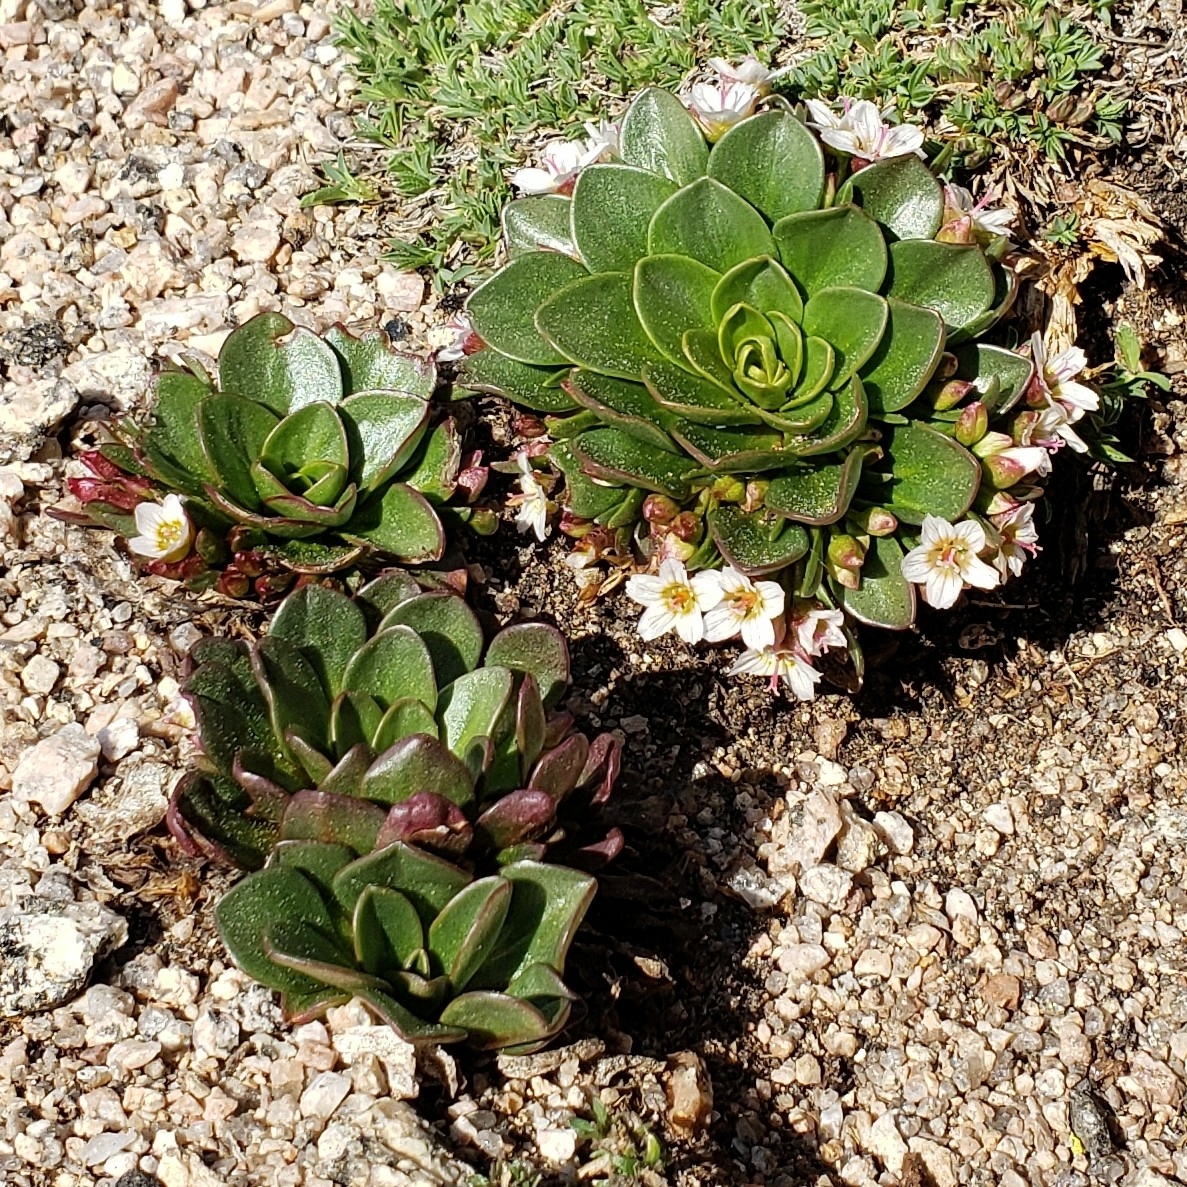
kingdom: Plantae
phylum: Tracheophyta
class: Magnoliopsida
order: Caryophyllales
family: Montiaceae
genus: Claytonia
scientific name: Claytonia megarhiza
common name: Alpine spring beauty
